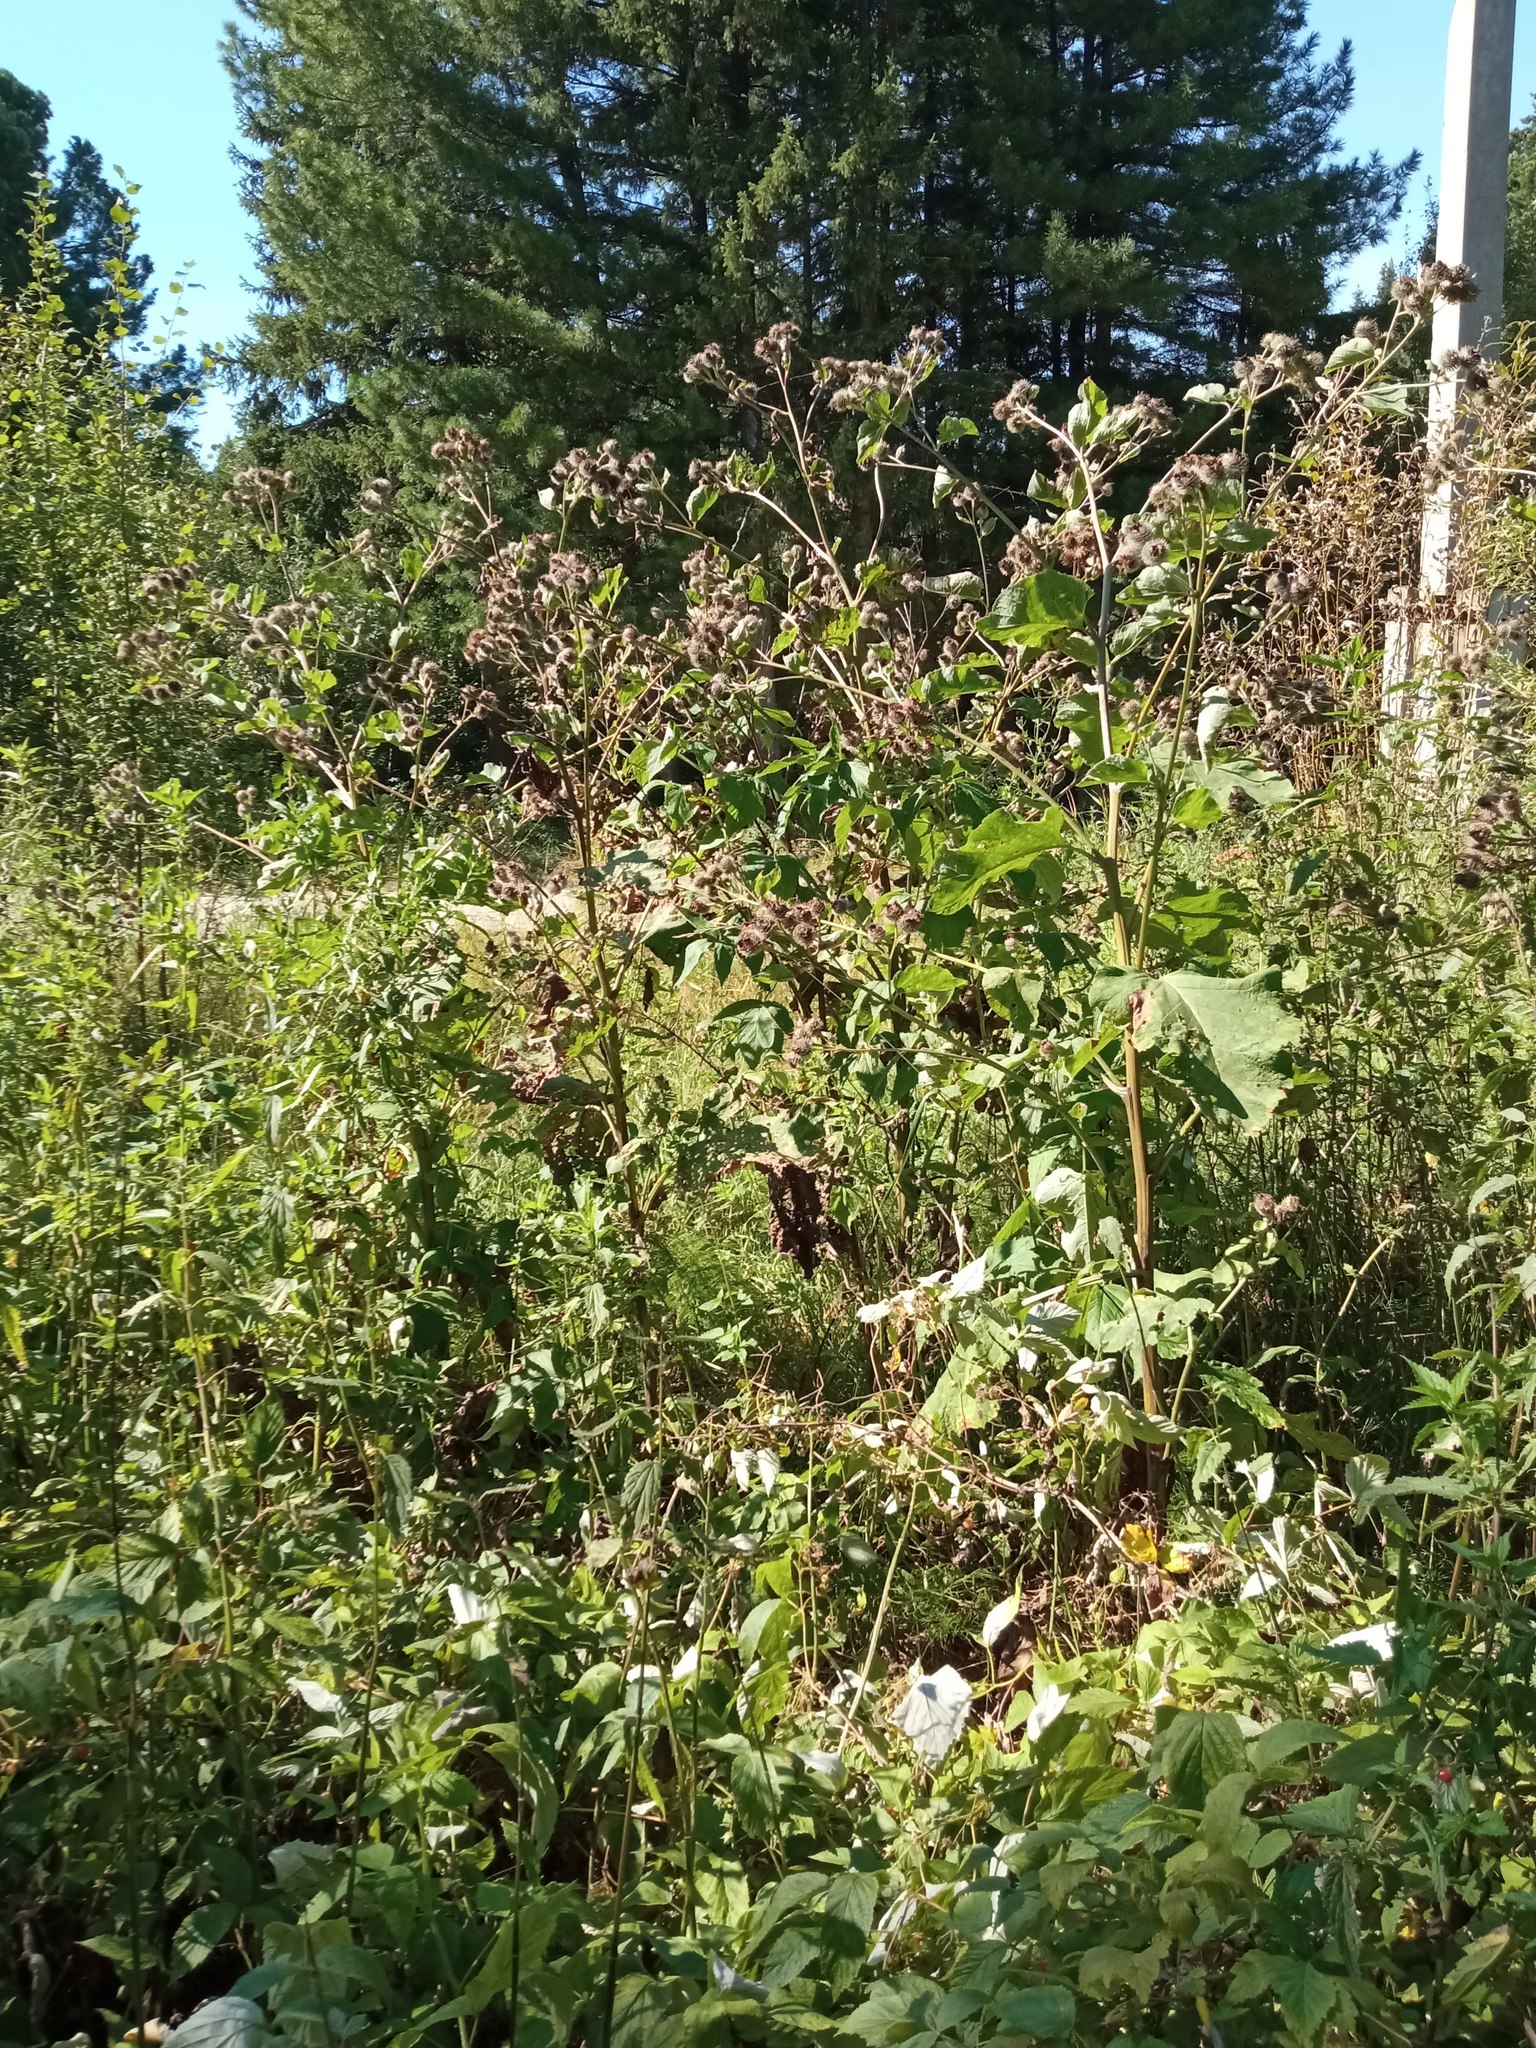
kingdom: Plantae
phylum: Tracheophyta
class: Magnoliopsida
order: Asterales
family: Asteraceae
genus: Arctium
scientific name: Arctium tomentosum
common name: Woolly burdock
